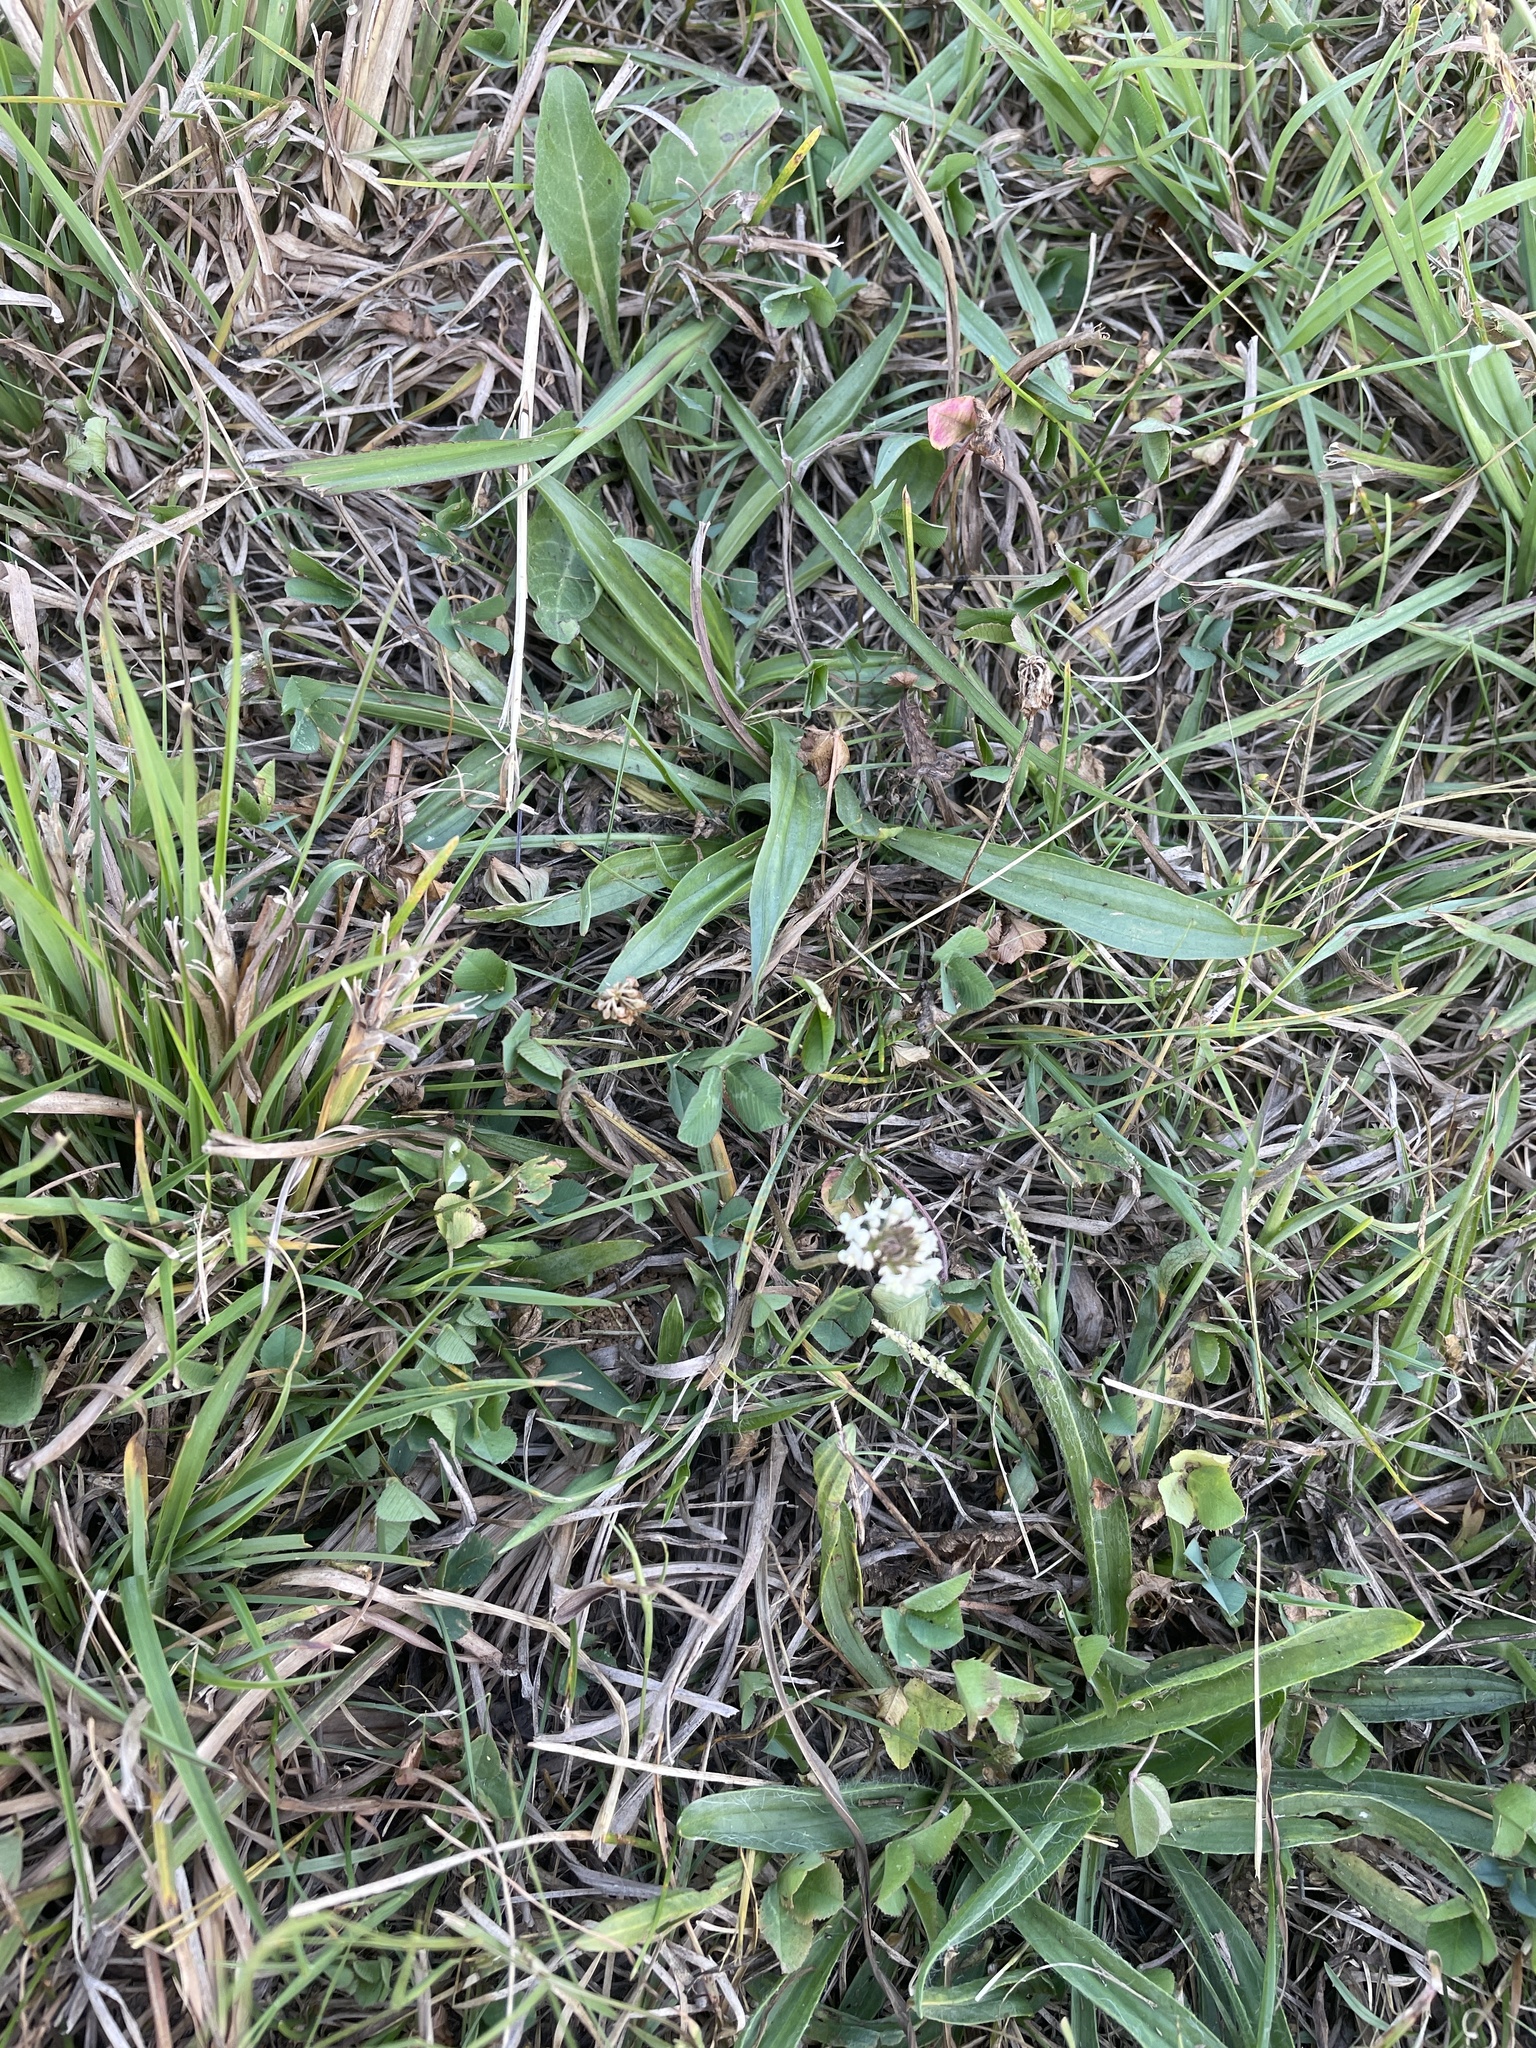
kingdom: Plantae
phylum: Tracheophyta
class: Magnoliopsida
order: Fabales
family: Fabaceae
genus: Trifolium
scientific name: Trifolium repens
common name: White clover
